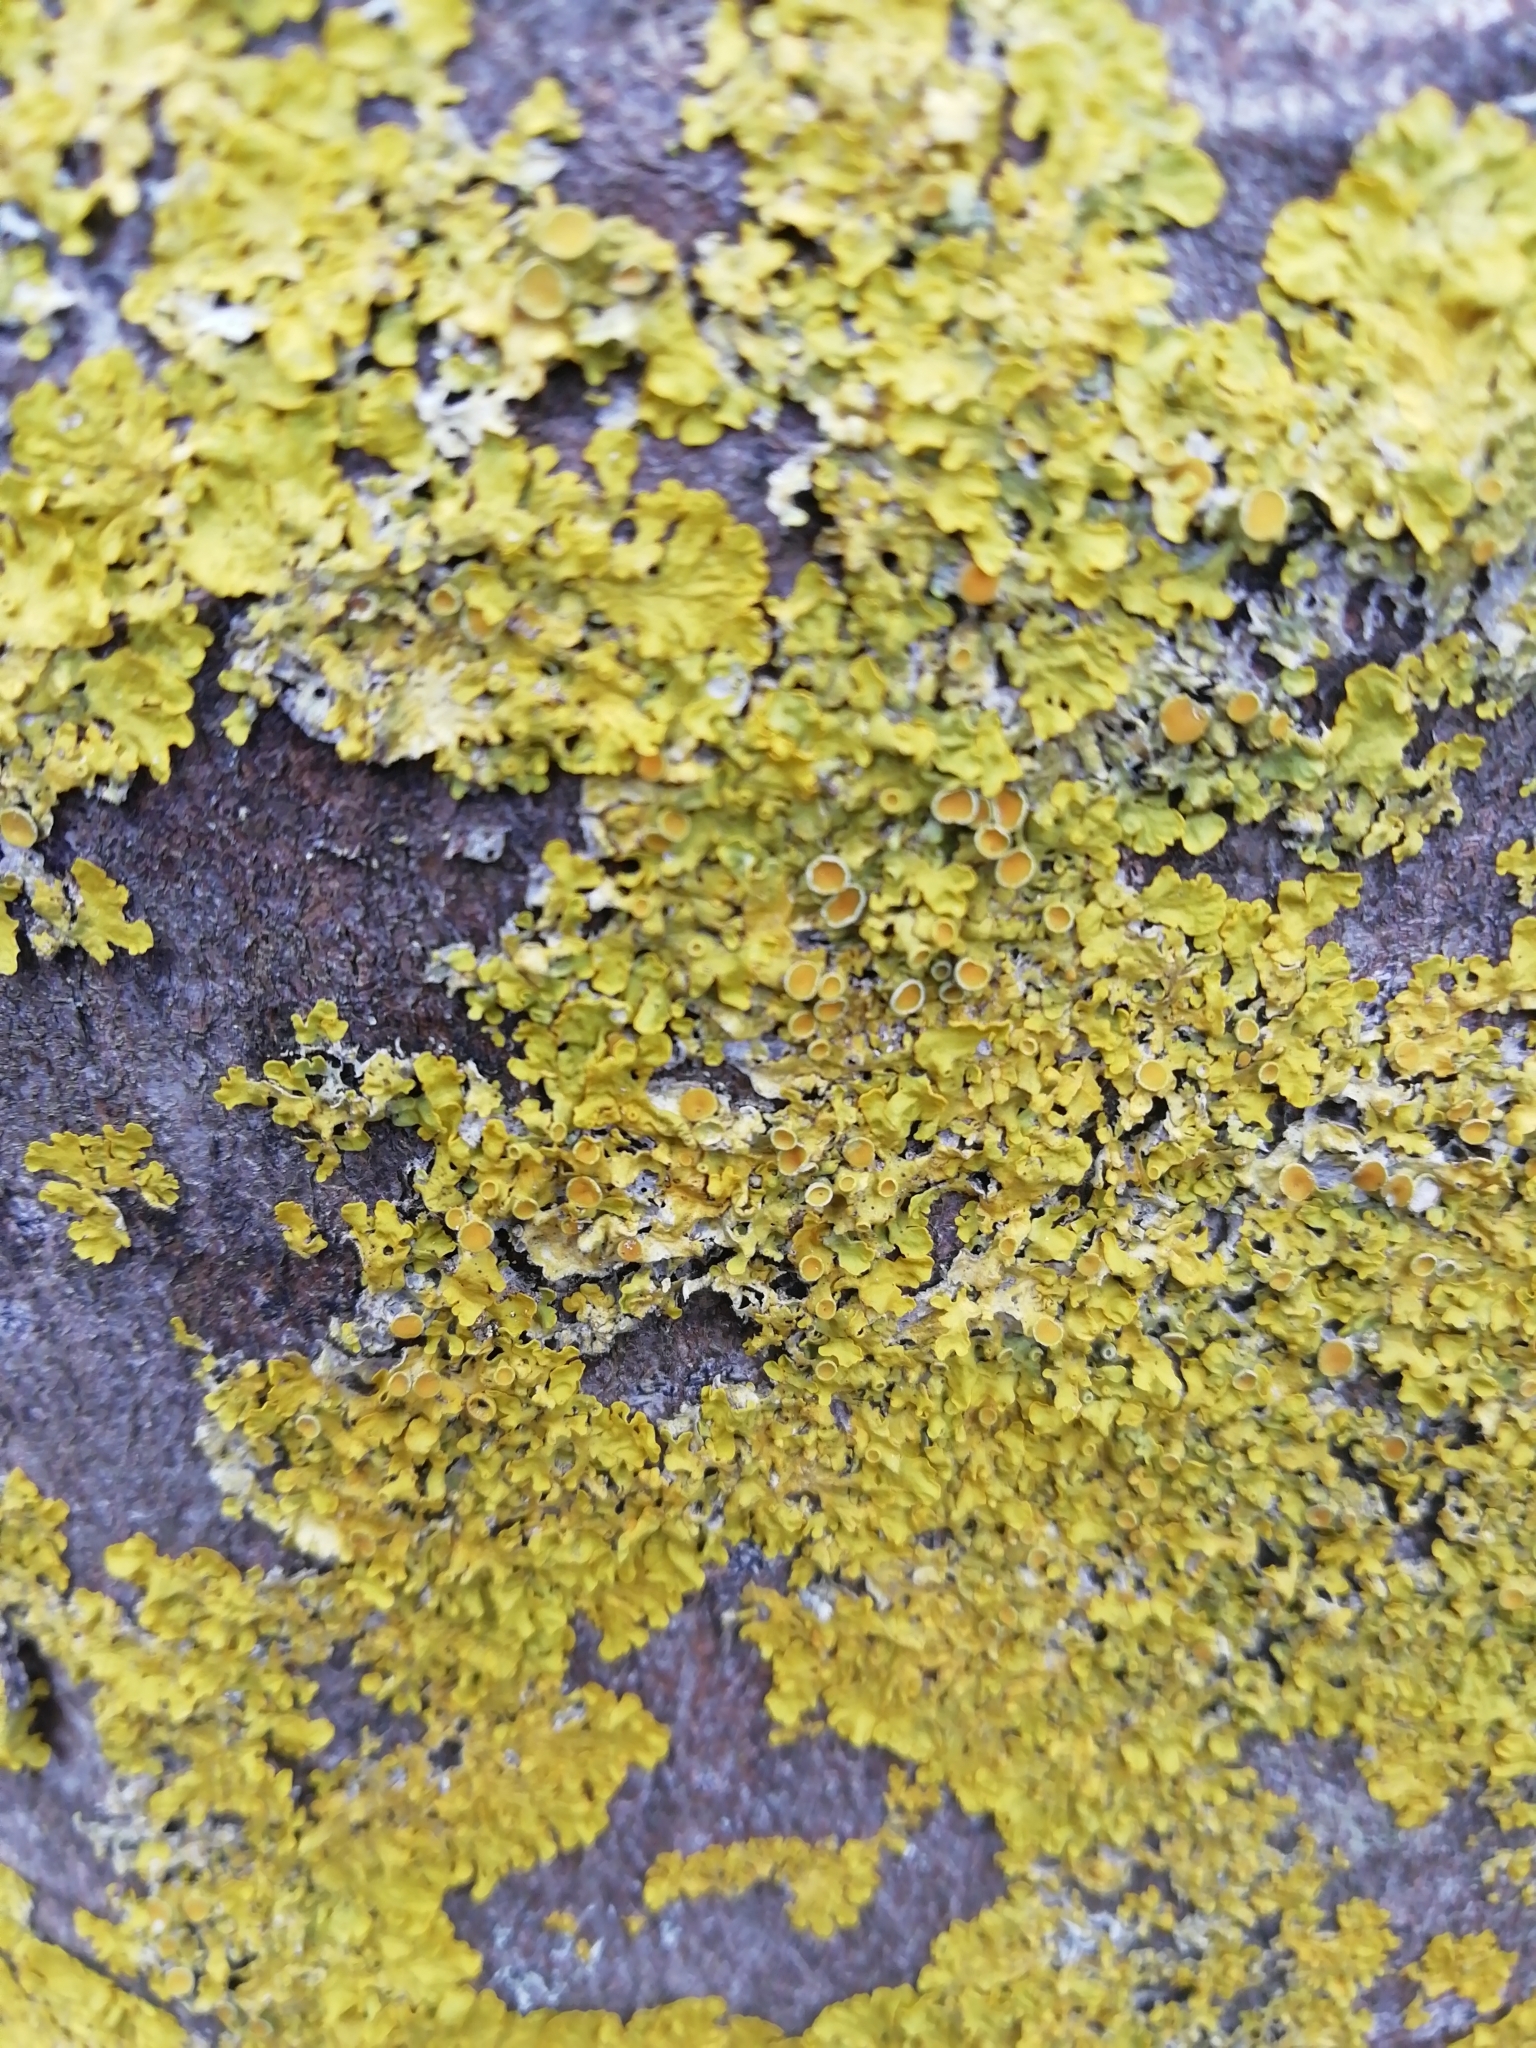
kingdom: Fungi
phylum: Ascomycota
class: Lecanoromycetes
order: Teloschistales
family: Teloschistaceae
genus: Xanthoria
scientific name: Xanthoria parietina
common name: Common orange lichen
